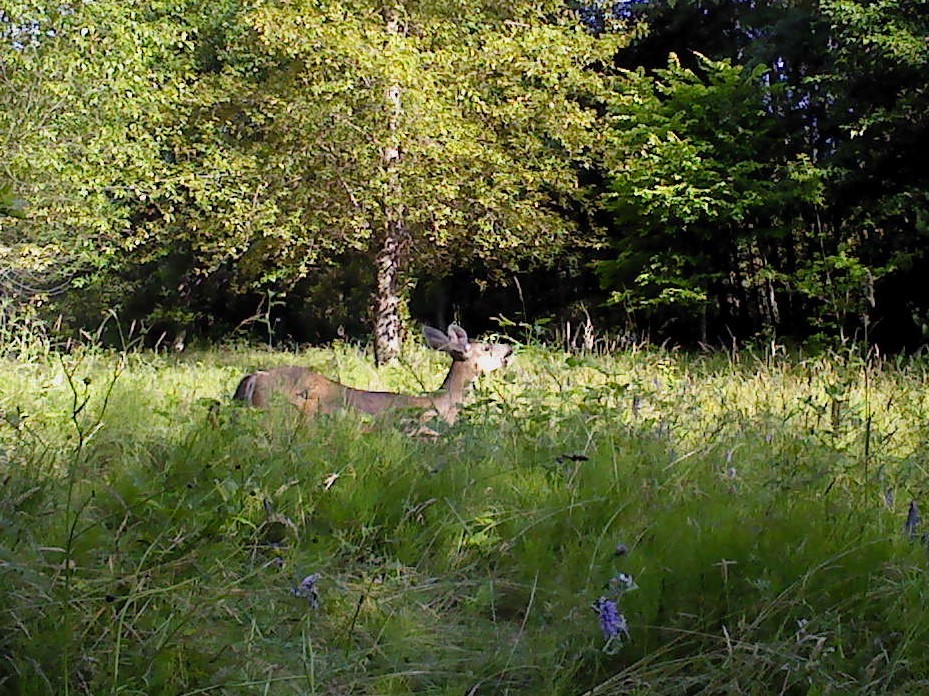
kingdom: Animalia
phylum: Chordata
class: Mammalia
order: Artiodactyla
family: Cervidae
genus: Odocoileus
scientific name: Odocoileus hemionus
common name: Mule deer
